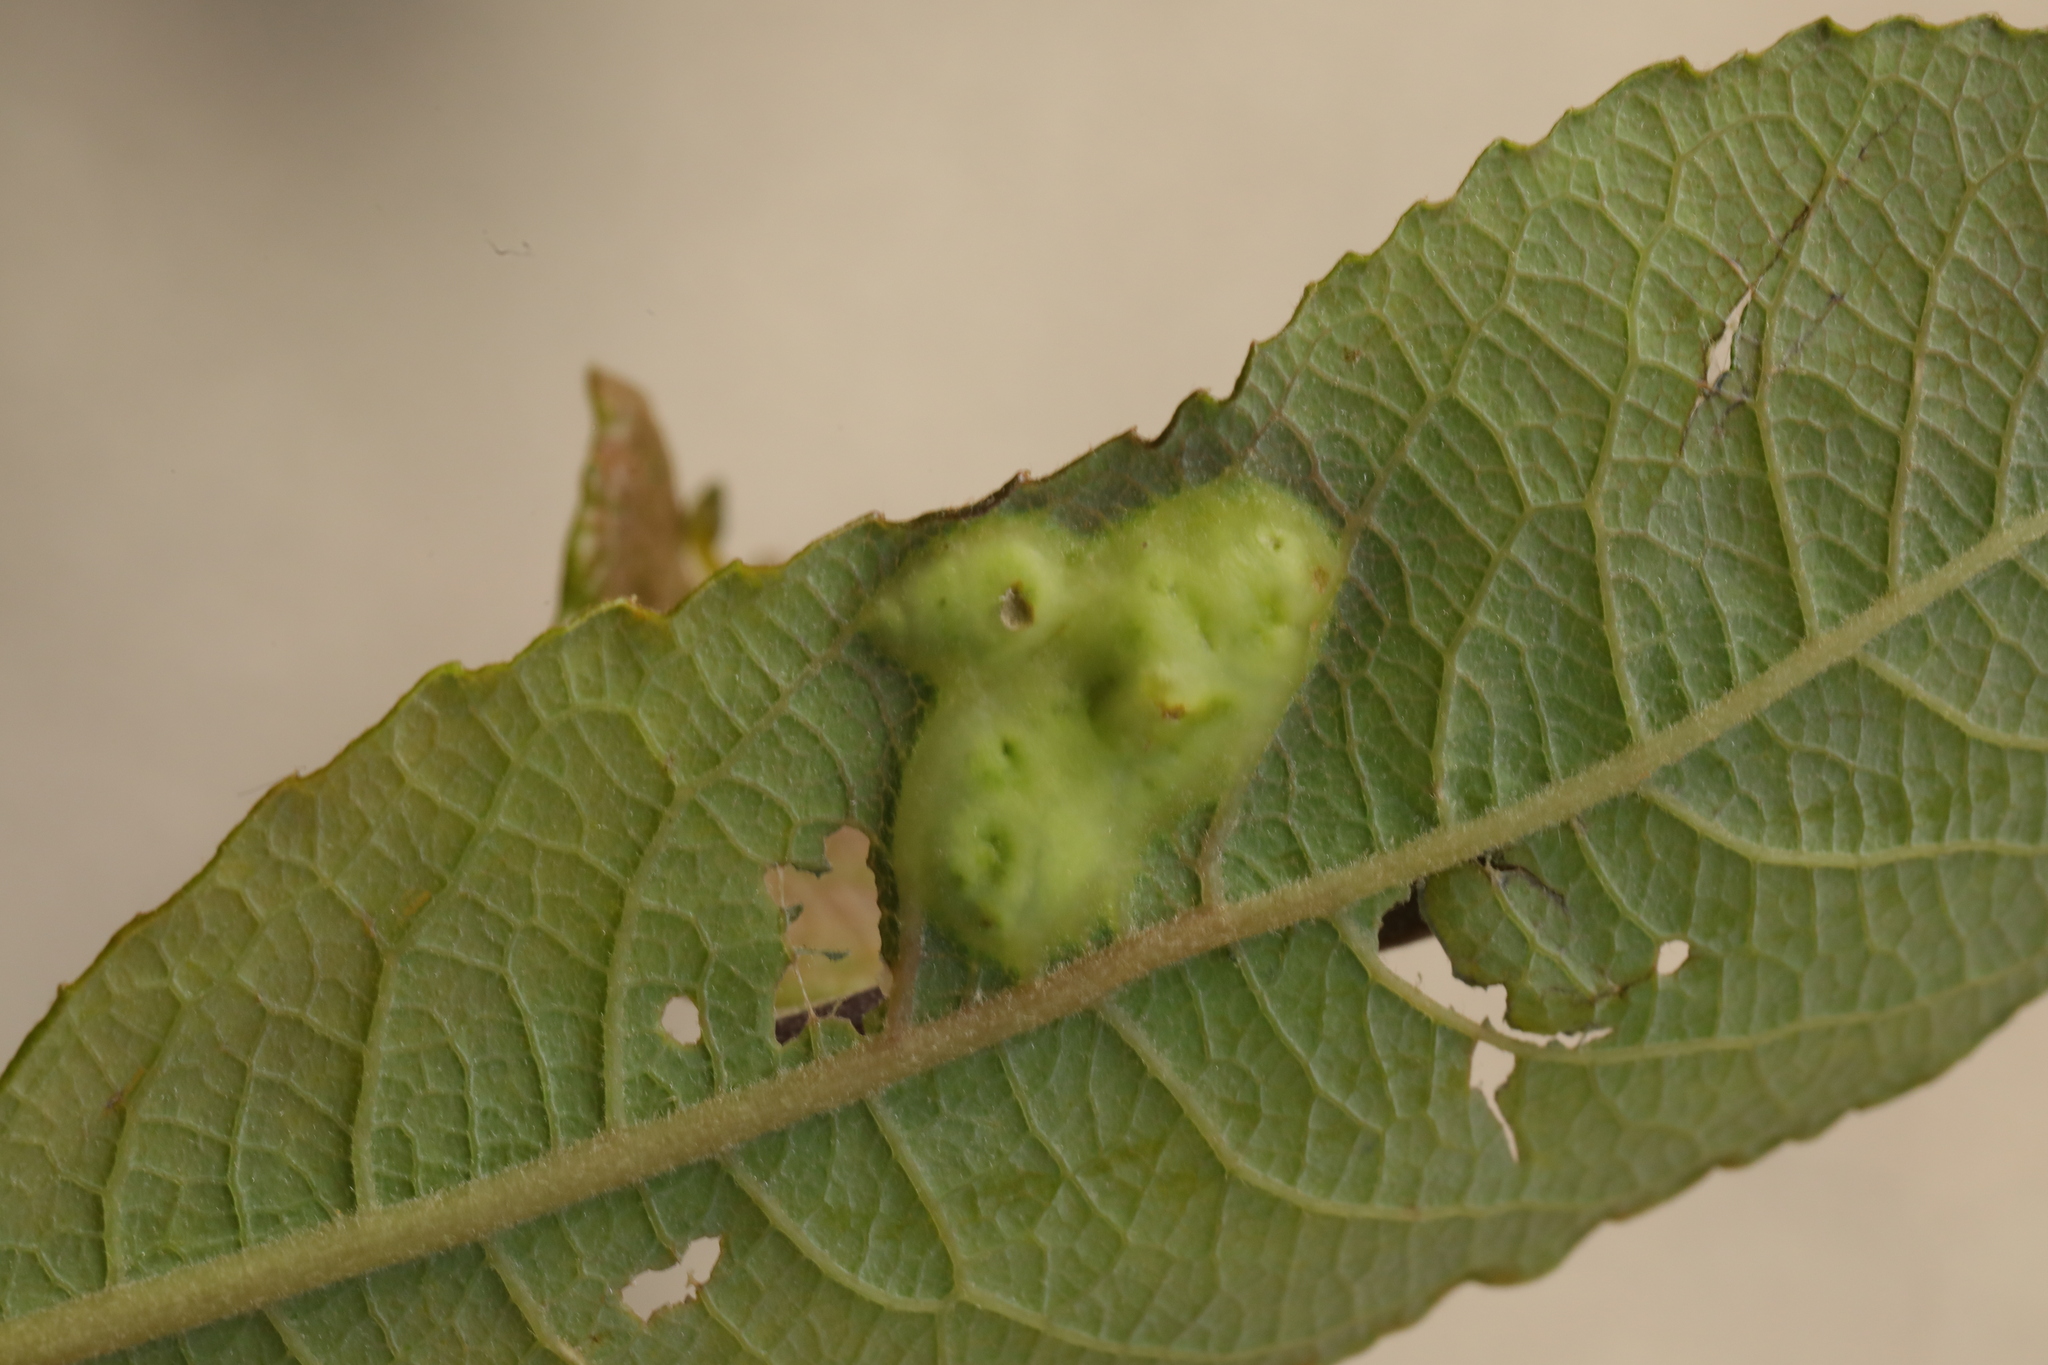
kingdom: Animalia
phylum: Arthropoda
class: Insecta
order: Diptera
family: Cecidomyiidae
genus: Iteomyia
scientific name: Iteomyia major
